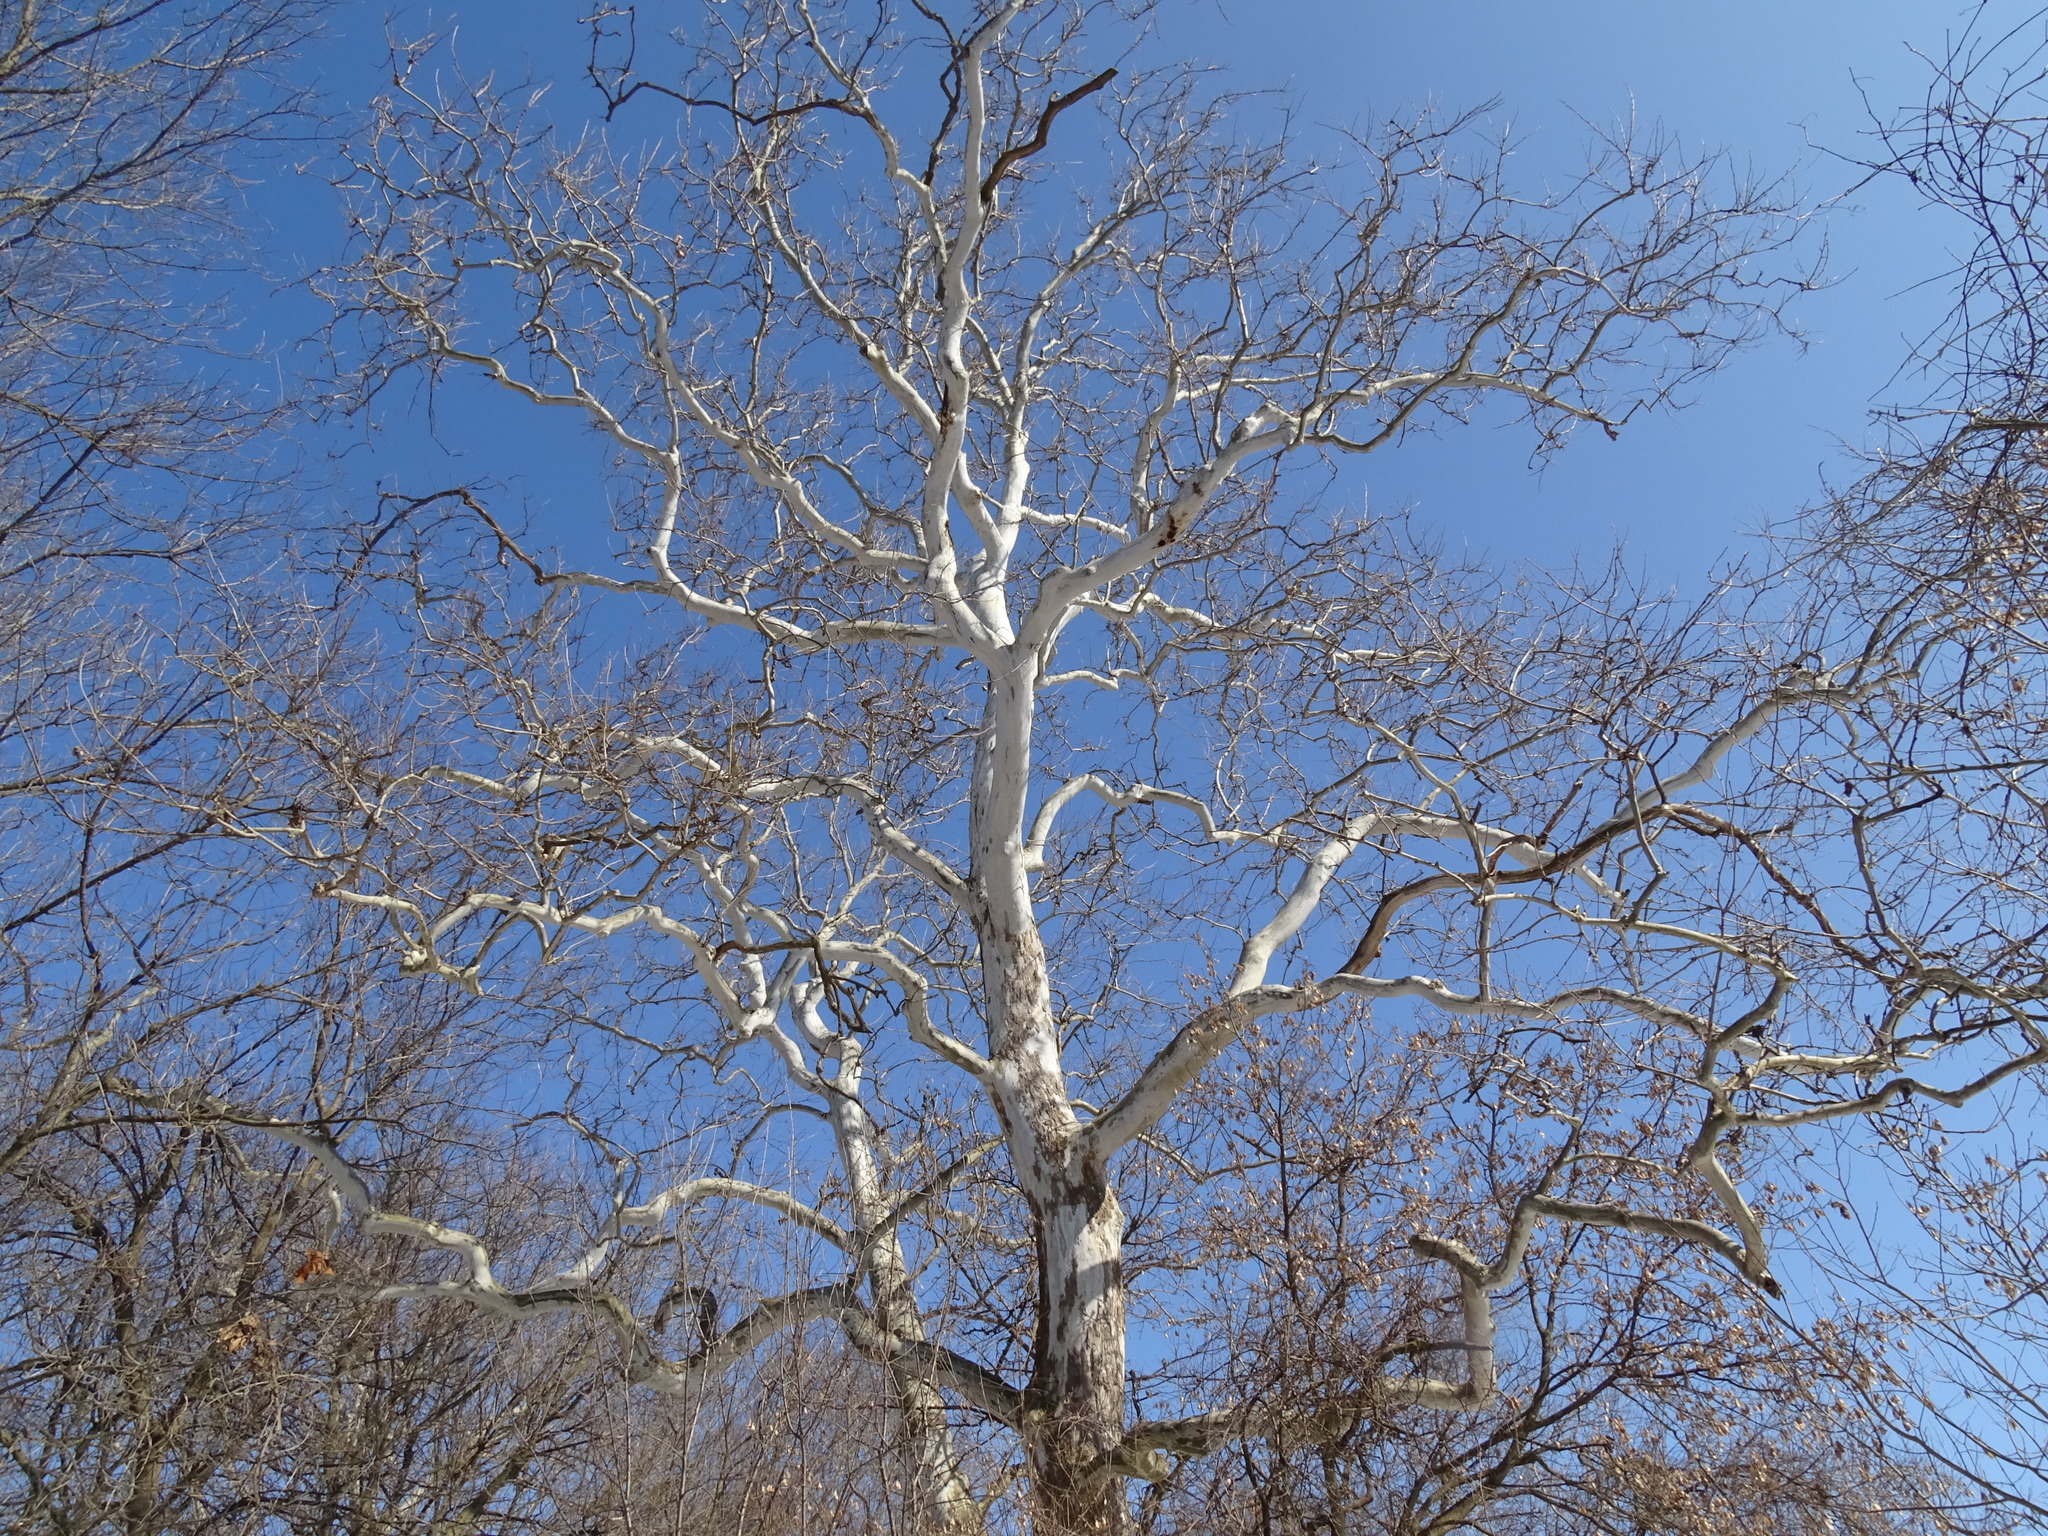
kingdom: Plantae
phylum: Tracheophyta
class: Magnoliopsida
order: Proteales
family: Platanaceae
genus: Platanus
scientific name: Platanus occidentalis
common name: American sycamore
